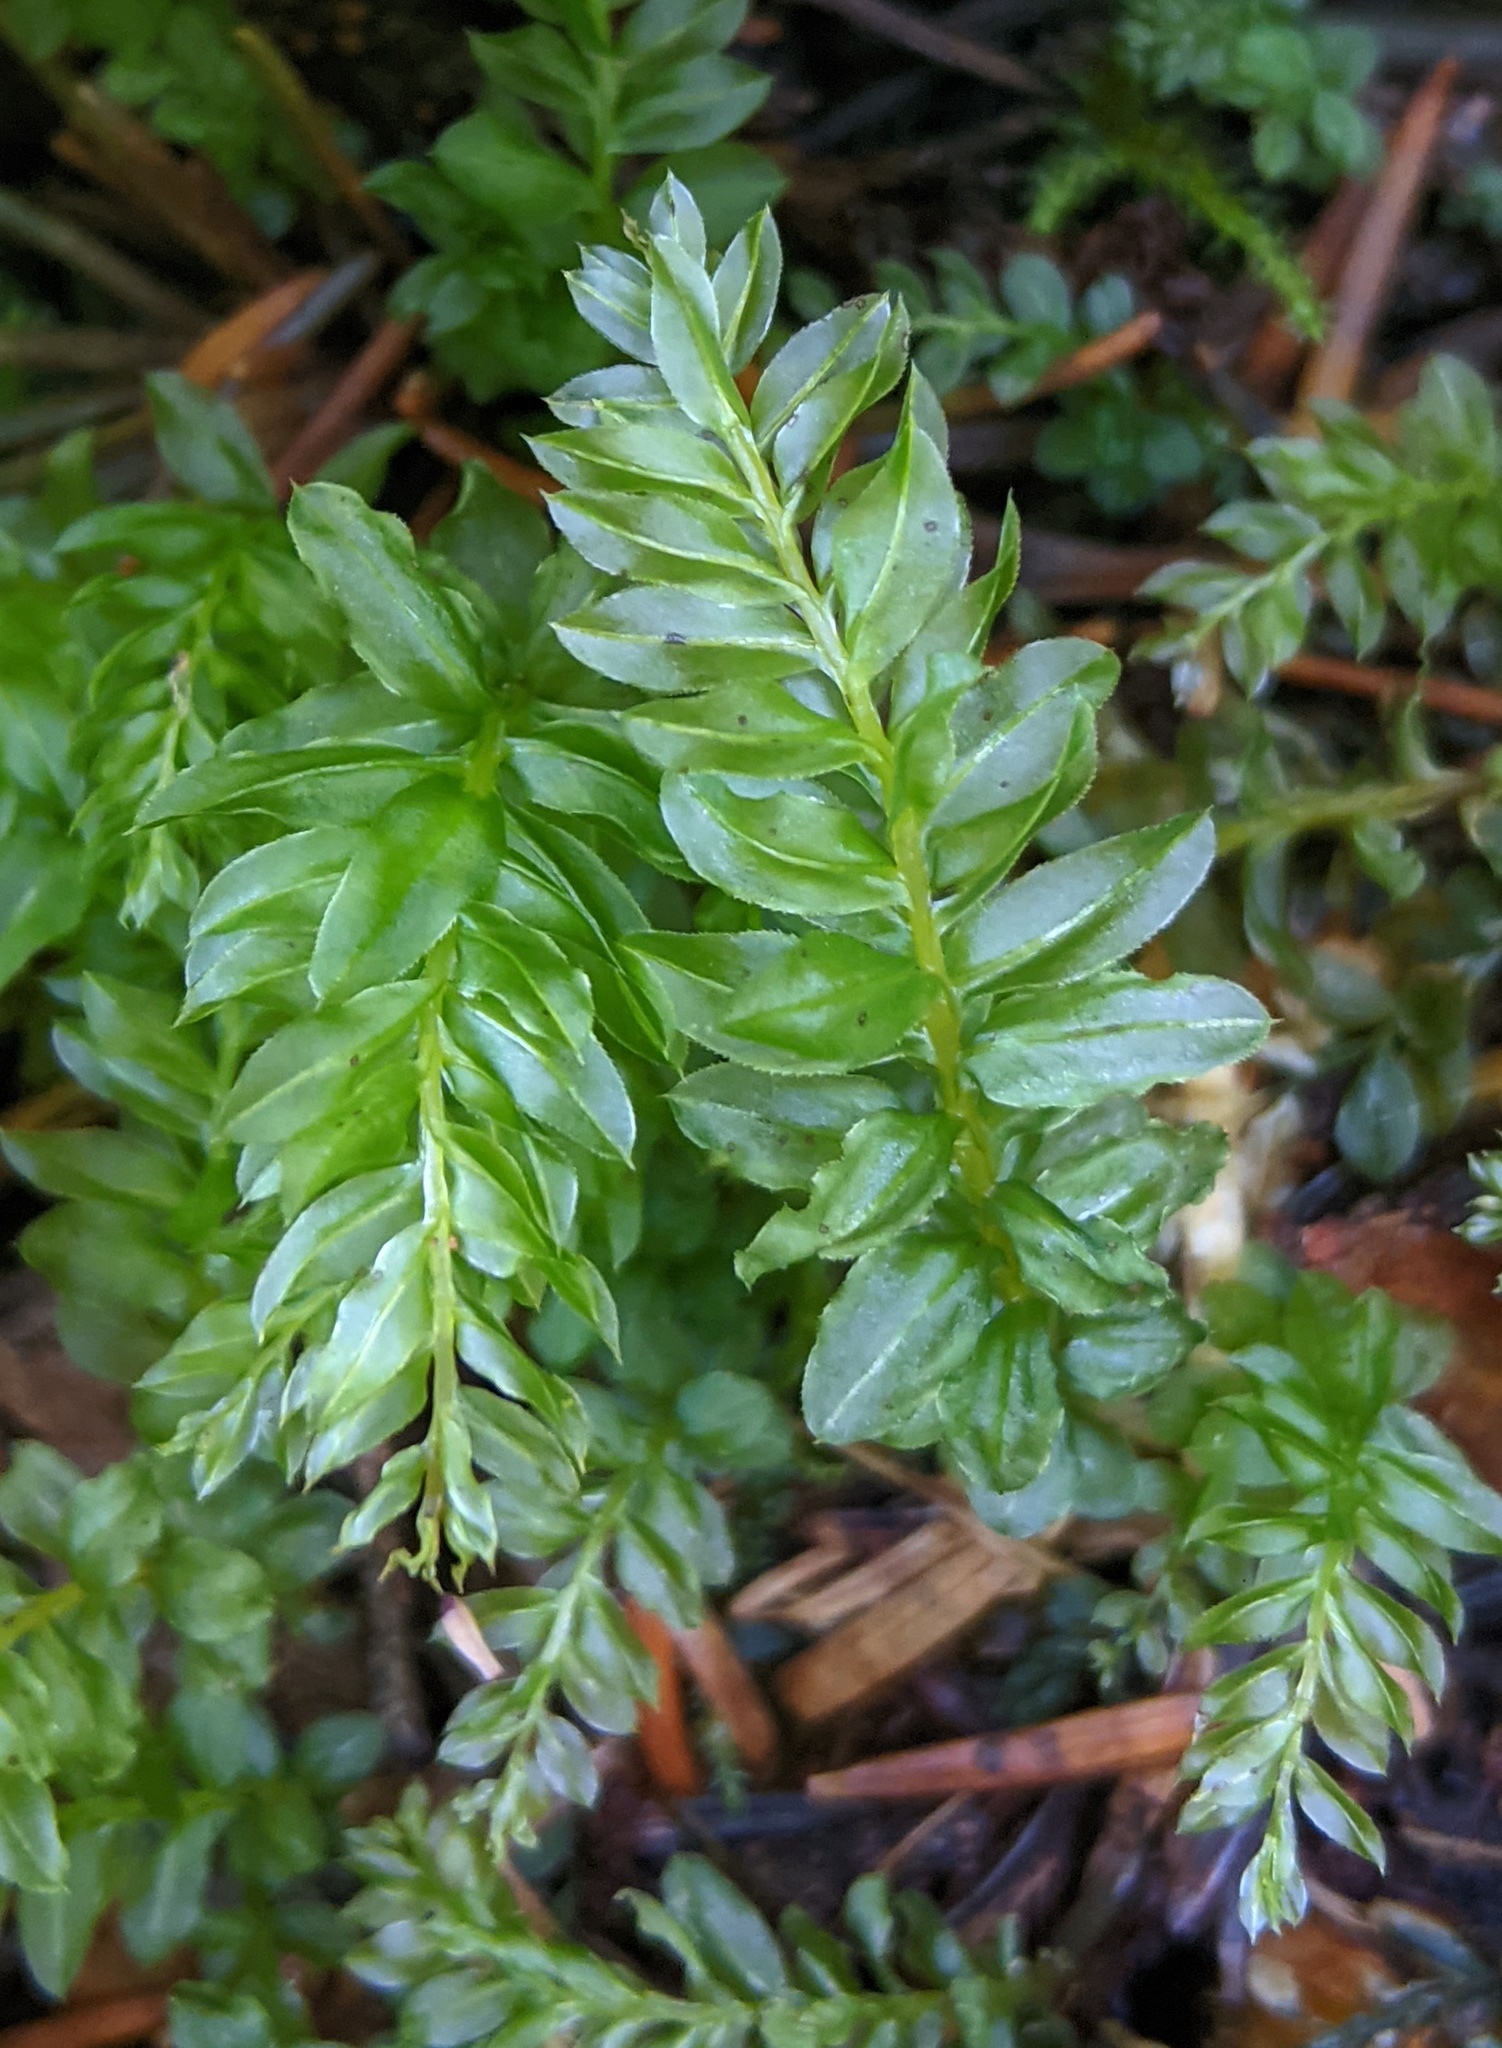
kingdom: Plantae
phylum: Bryophyta
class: Bryopsida
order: Bryales
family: Mniaceae
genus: Plagiomnium
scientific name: Plagiomnium insigne
